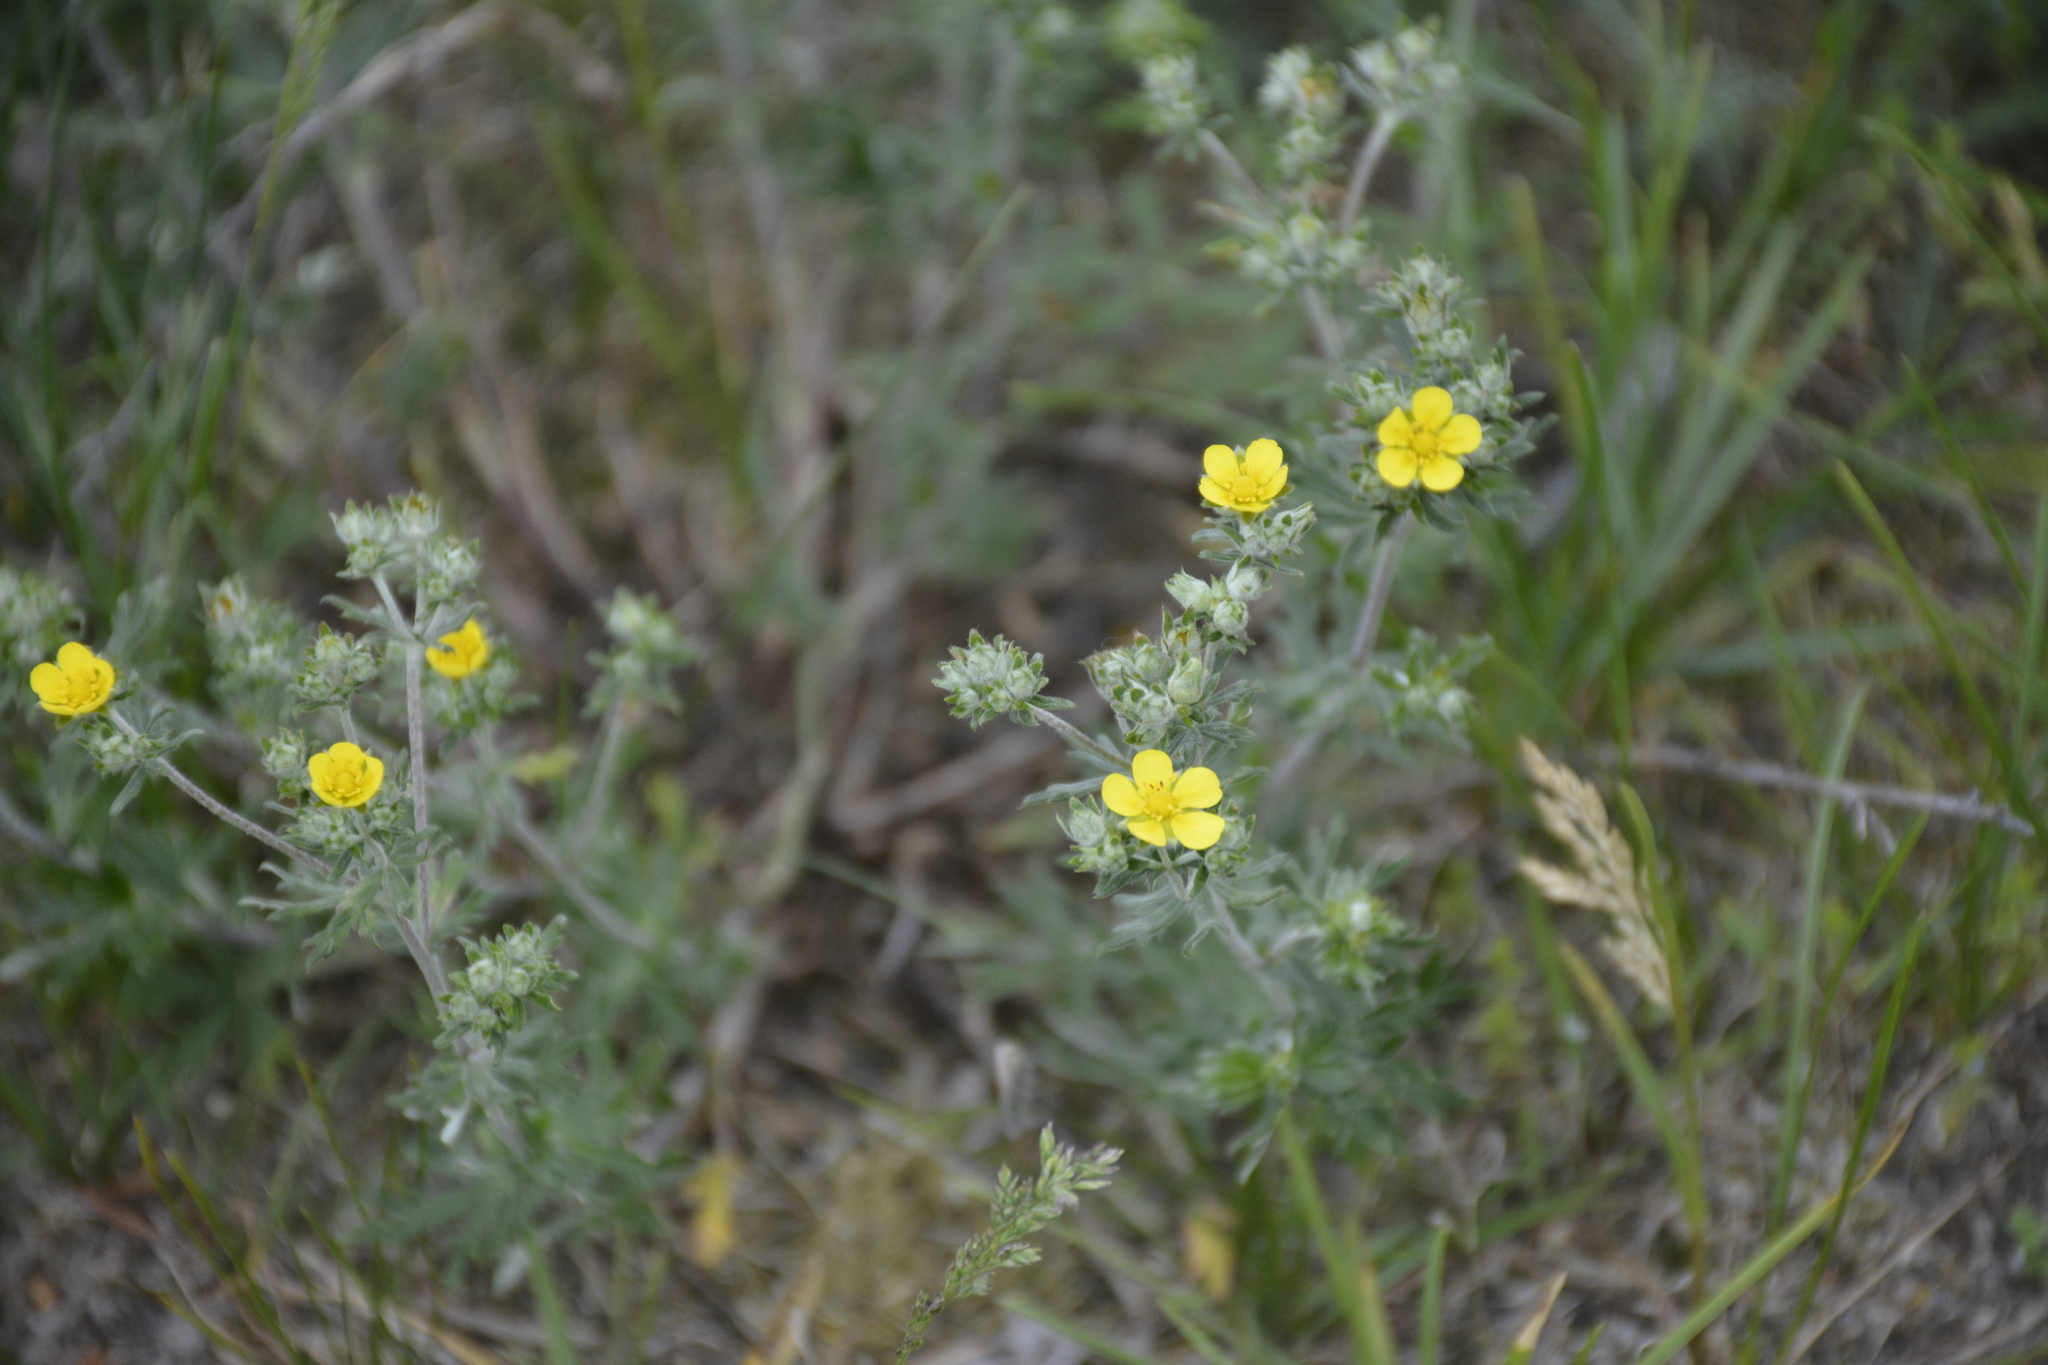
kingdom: Plantae
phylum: Tracheophyta
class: Magnoliopsida
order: Rosales
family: Rosaceae
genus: Potentilla
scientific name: Potentilla argentea
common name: Hoary cinquefoil
